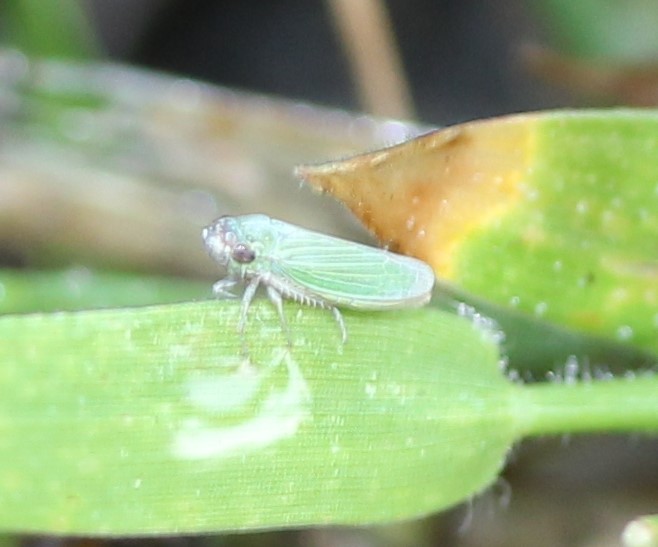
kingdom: Animalia
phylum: Arthropoda
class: Insecta
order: Hemiptera
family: Cicadellidae
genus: Xyphon
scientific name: Xyphon reticulatum
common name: Planthopper
